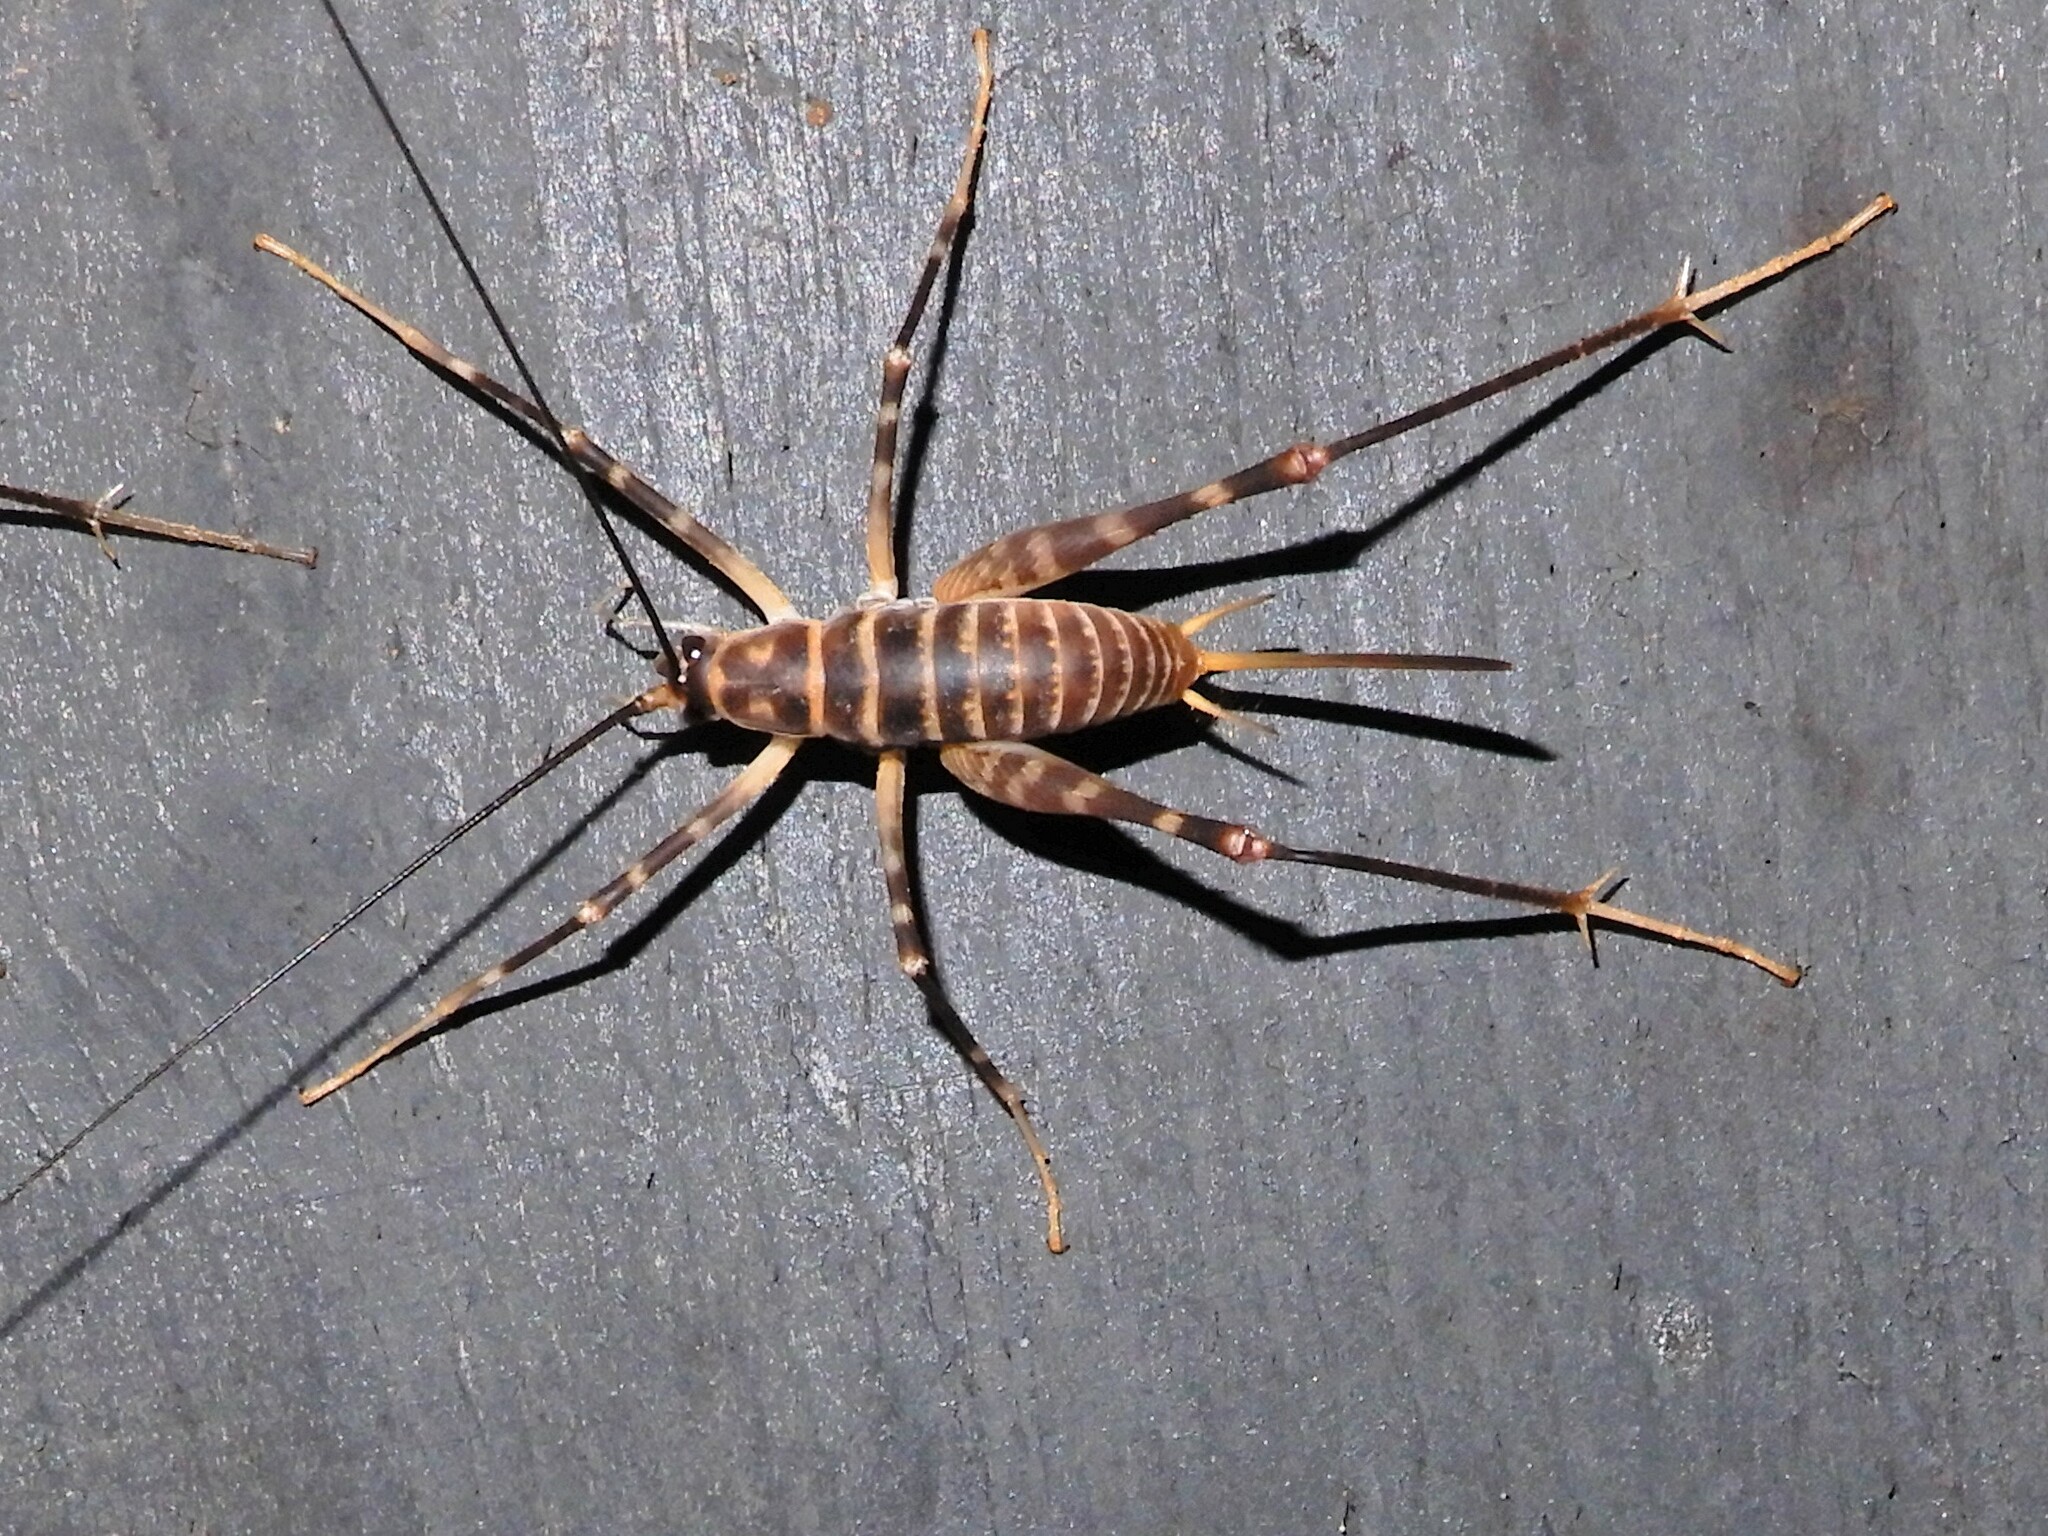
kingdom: Animalia
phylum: Arthropoda
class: Insecta
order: Orthoptera
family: Rhaphidophoridae
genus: Pachyrhamma
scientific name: Pachyrhamma acanthocera
